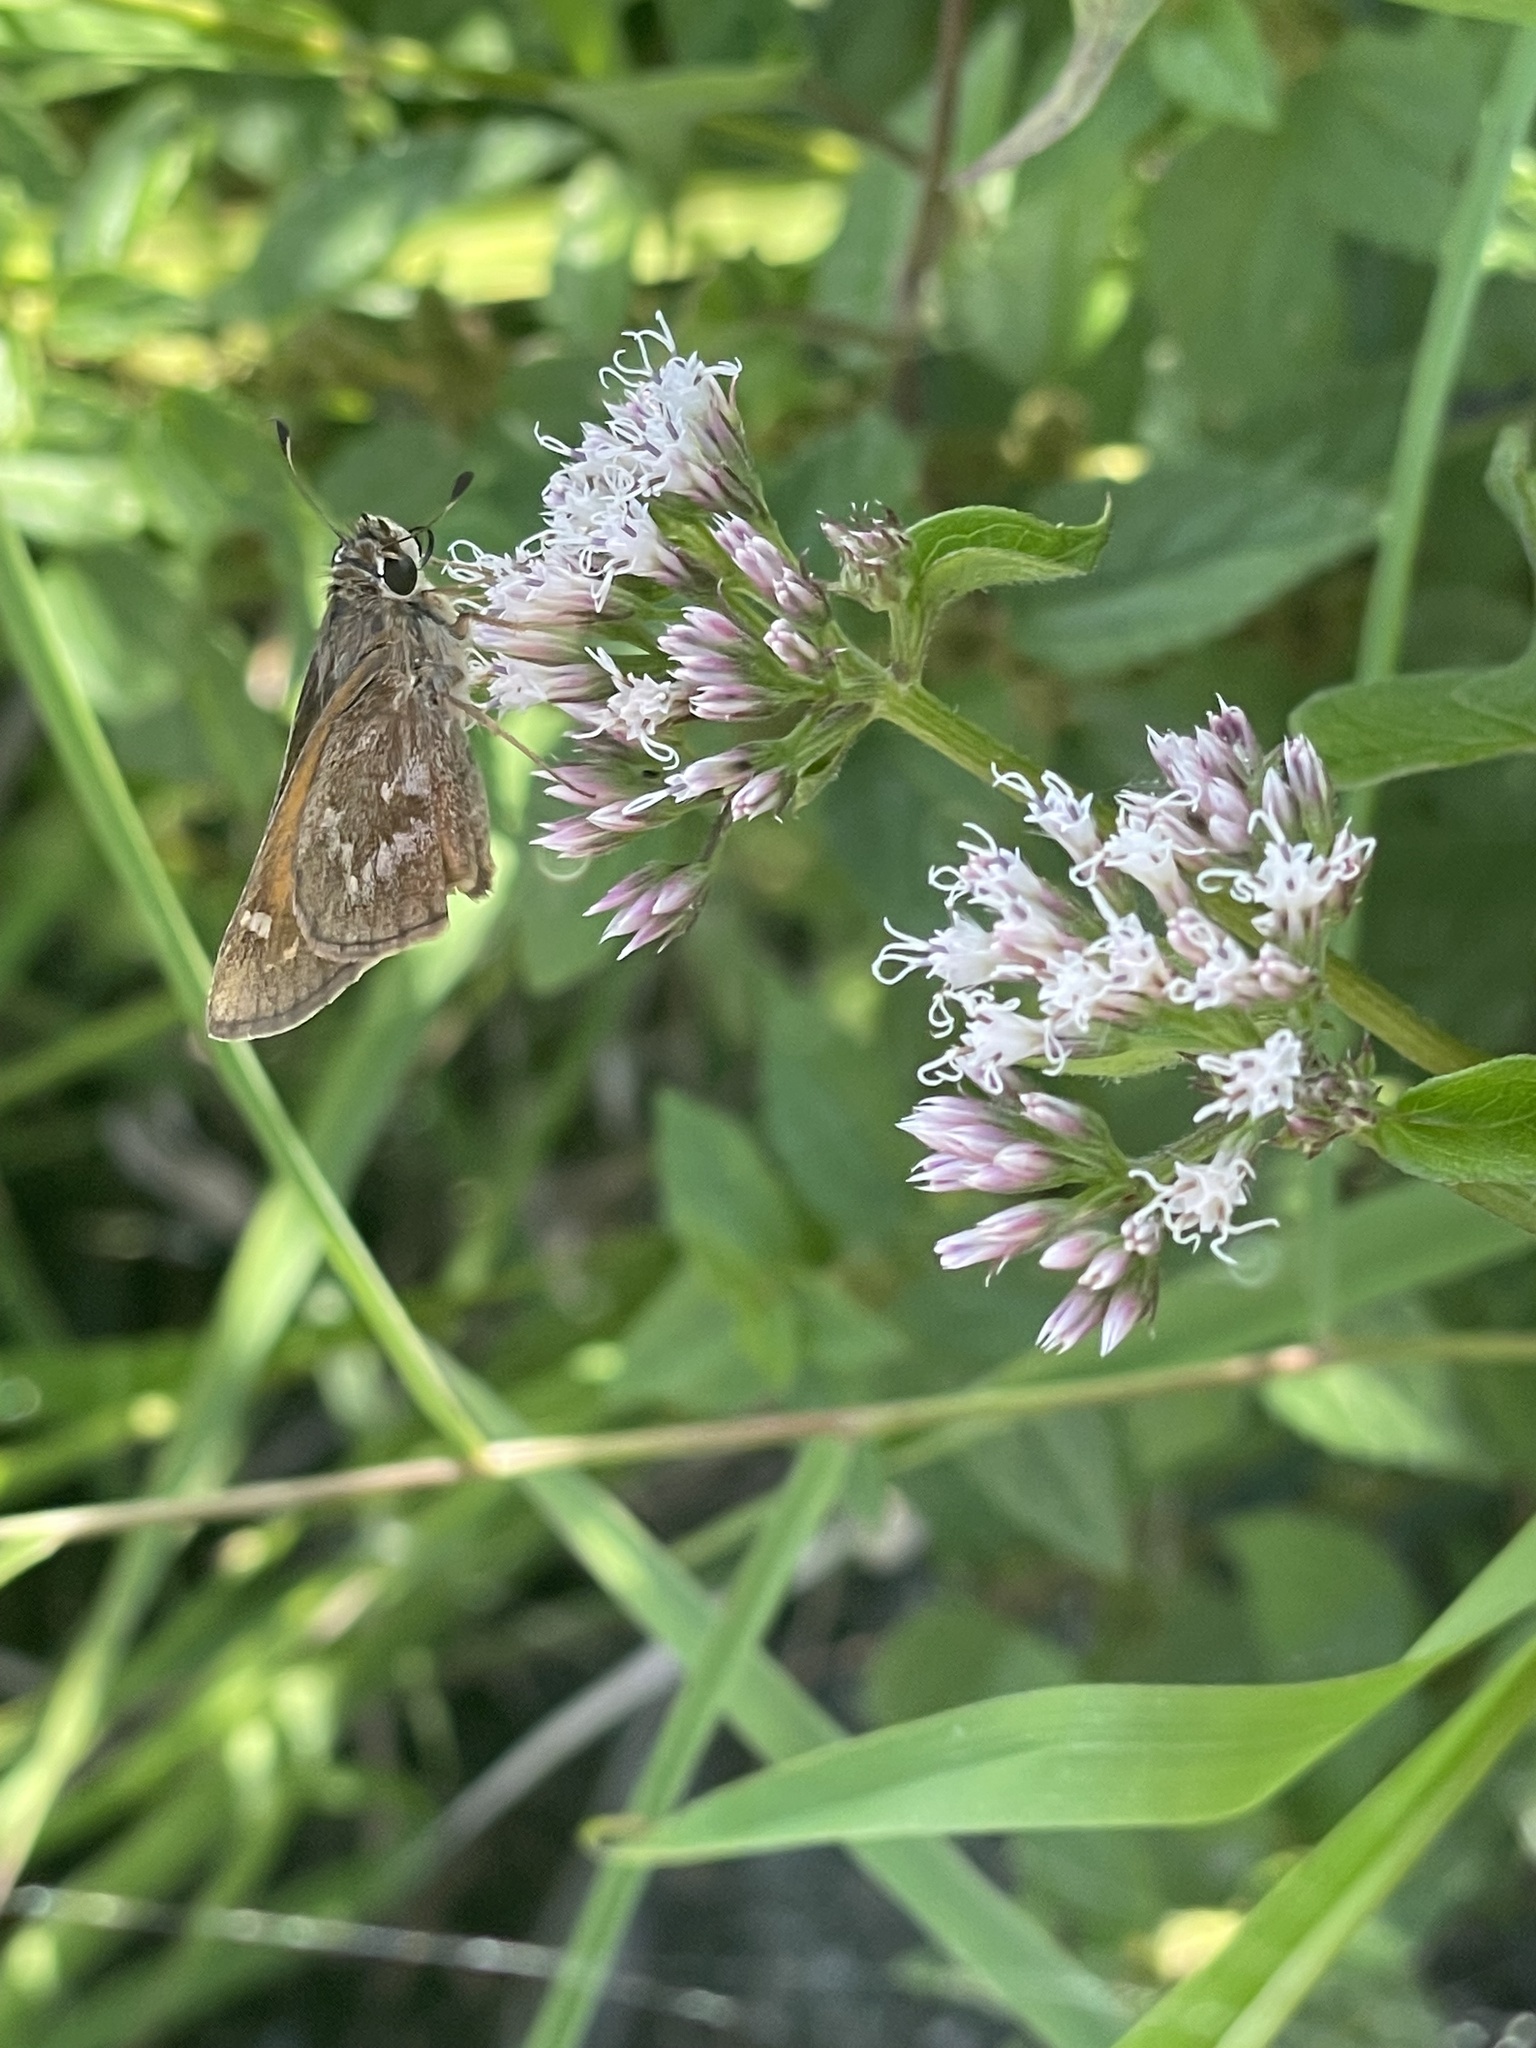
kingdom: Animalia
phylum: Arthropoda
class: Insecta
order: Lepidoptera
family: Hesperiidae
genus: Atalopedes
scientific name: Atalopedes
